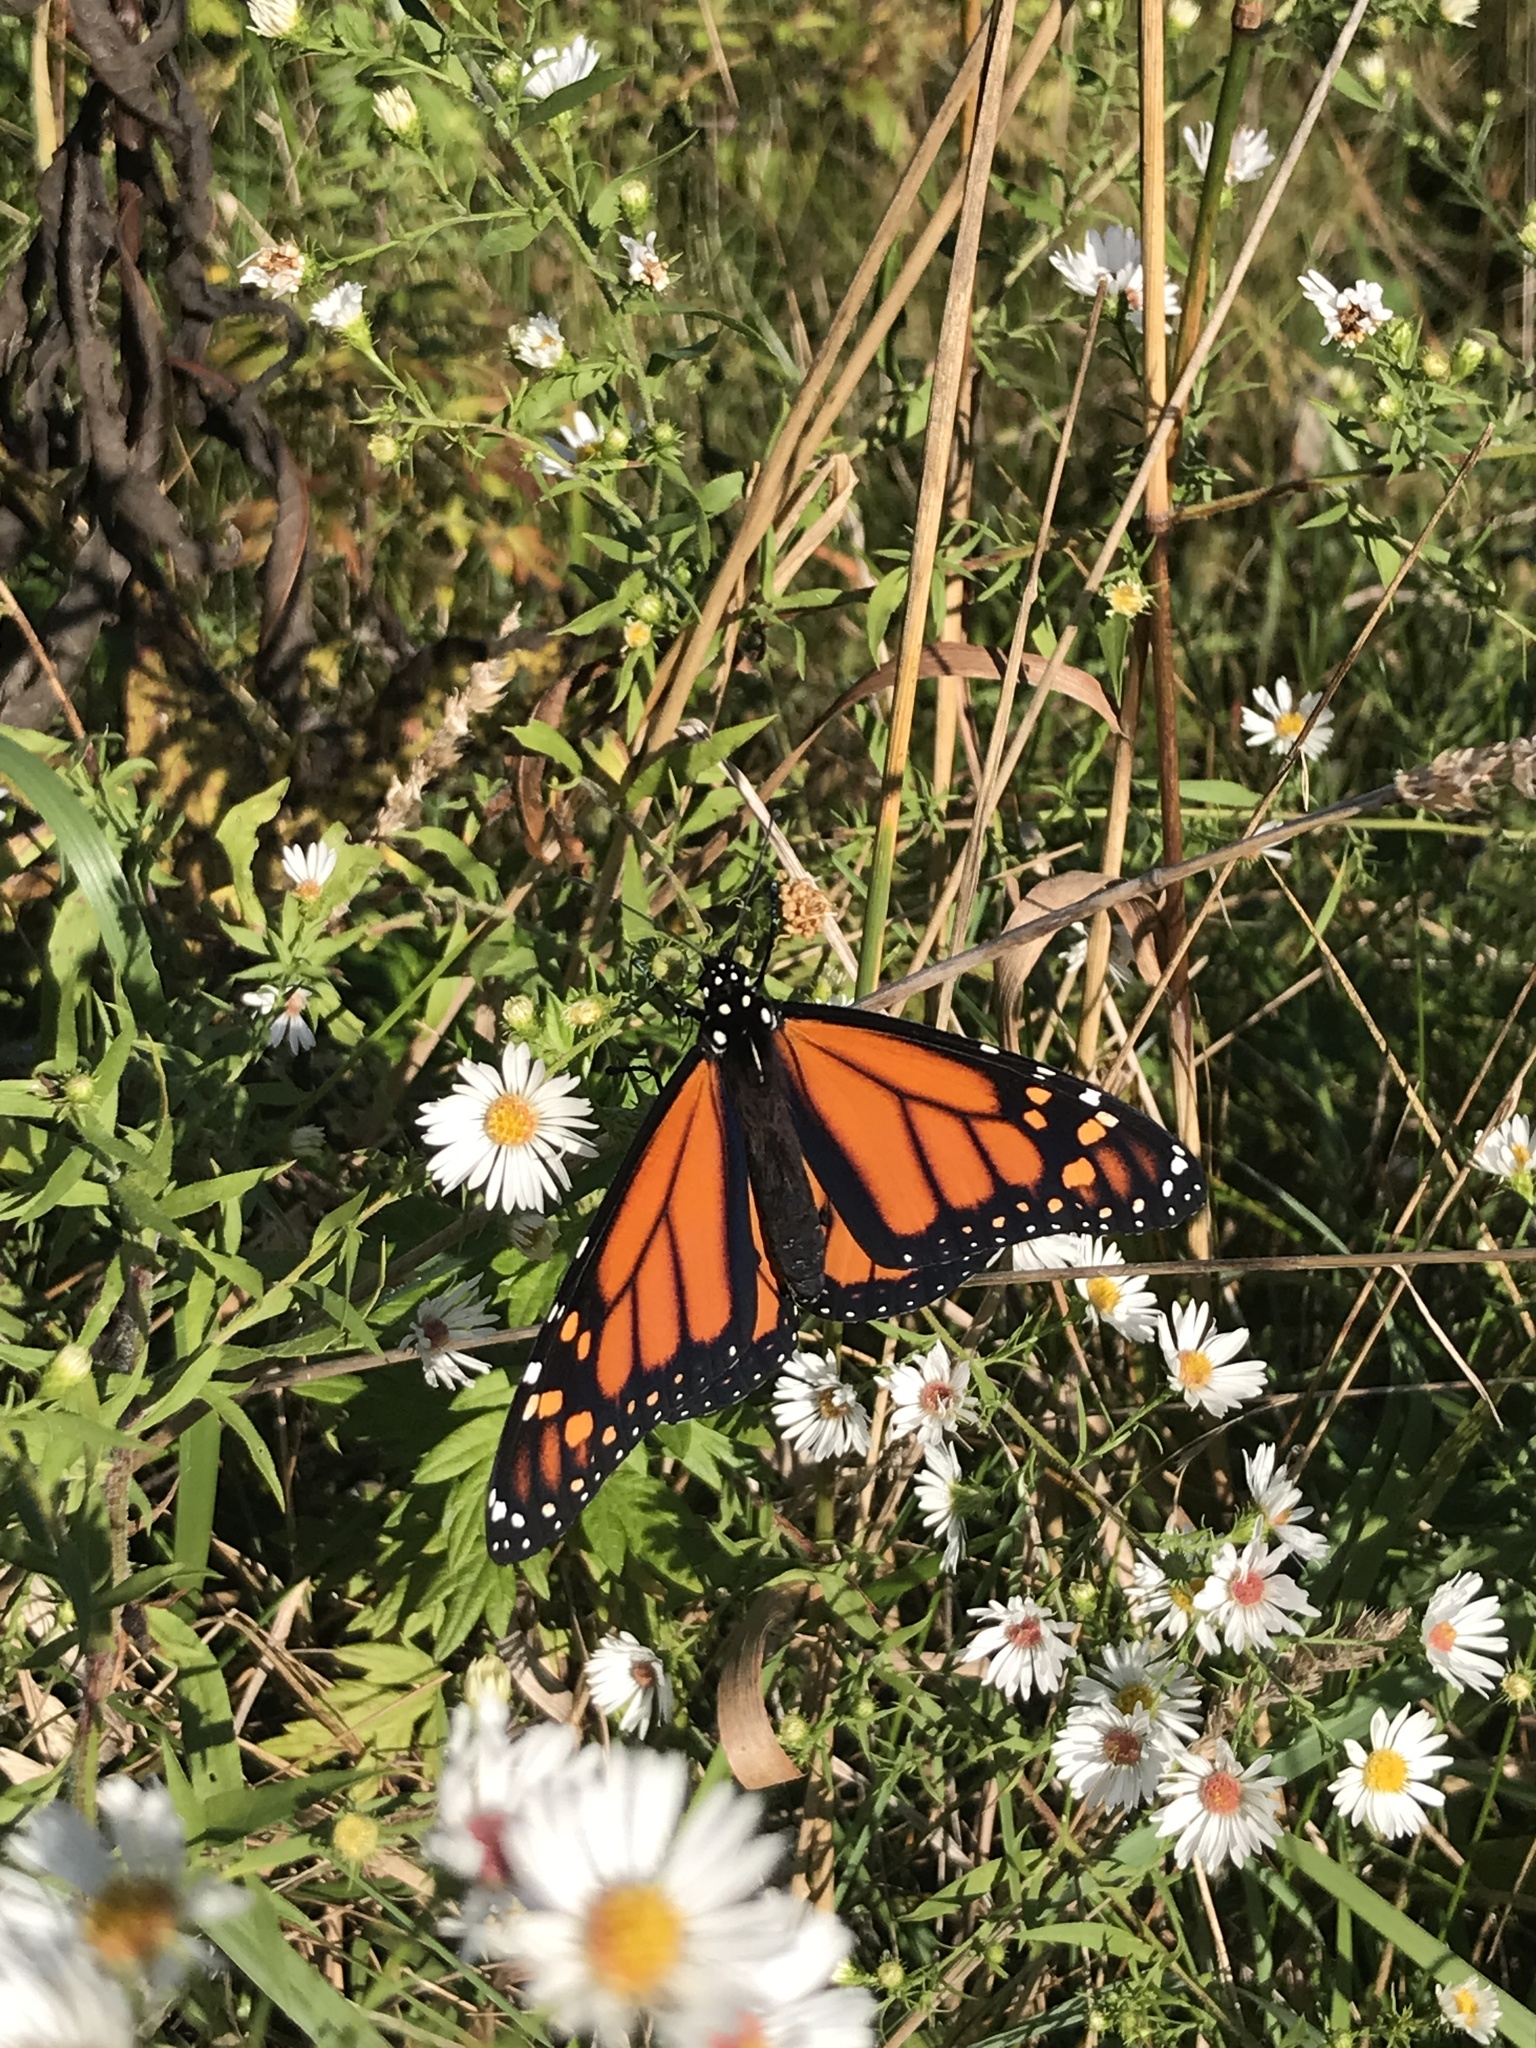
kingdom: Animalia
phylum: Arthropoda
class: Insecta
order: Lepidoptera
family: Nymphalidae
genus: Danaus
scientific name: Danaus plexippus
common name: Monarch
